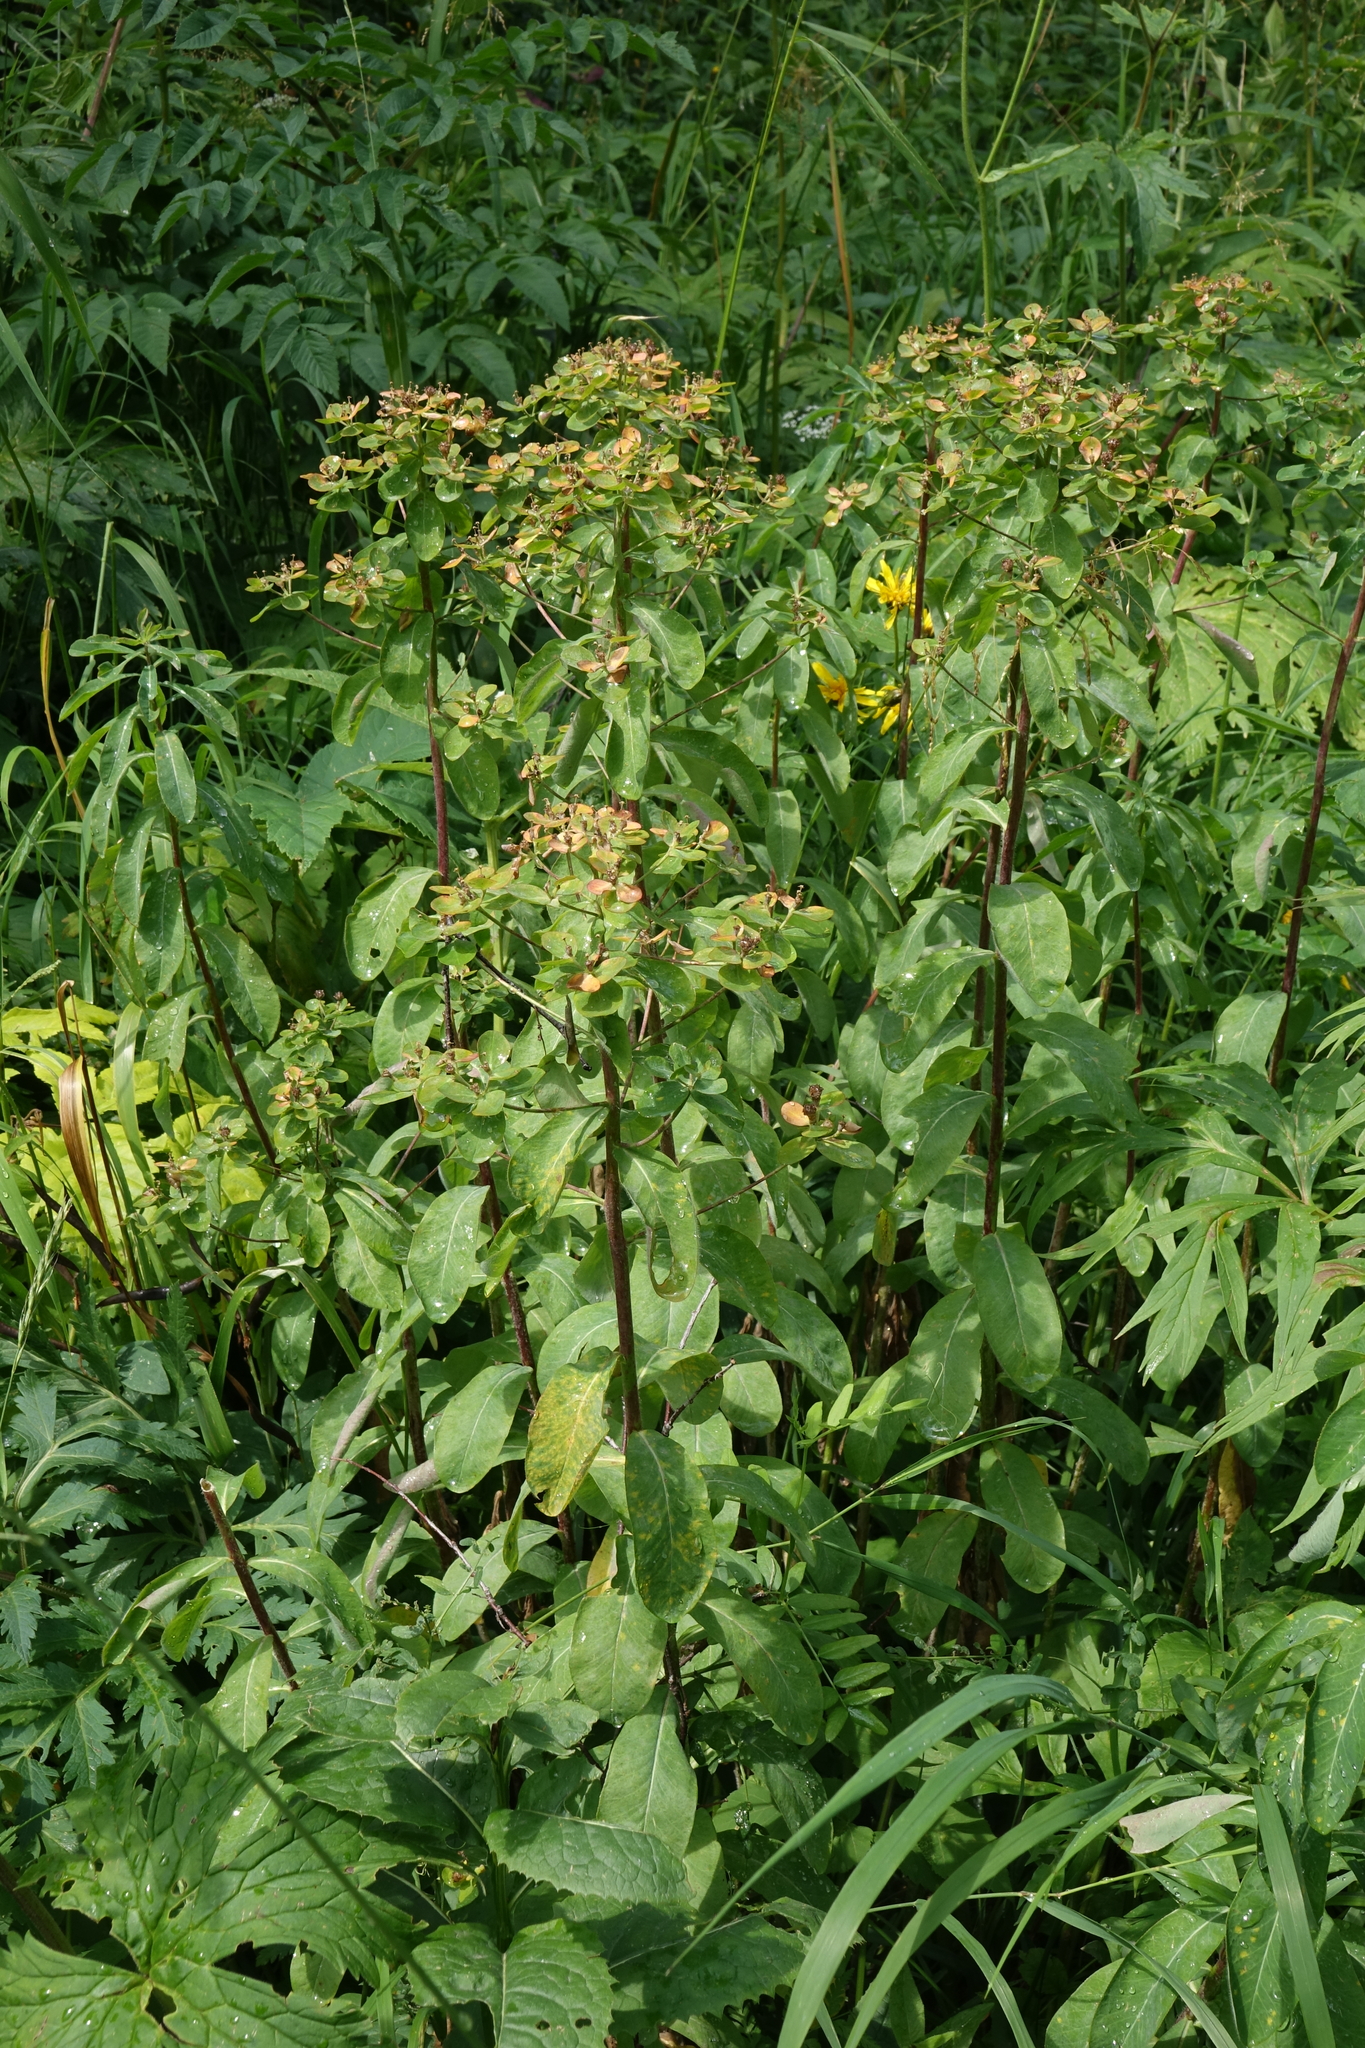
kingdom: Plantae
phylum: Tracheophyta
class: Magnoliopsida
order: Malpighiales
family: Euphorbiaceae
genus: Euphorbia
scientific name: Euphorbia pilosa
